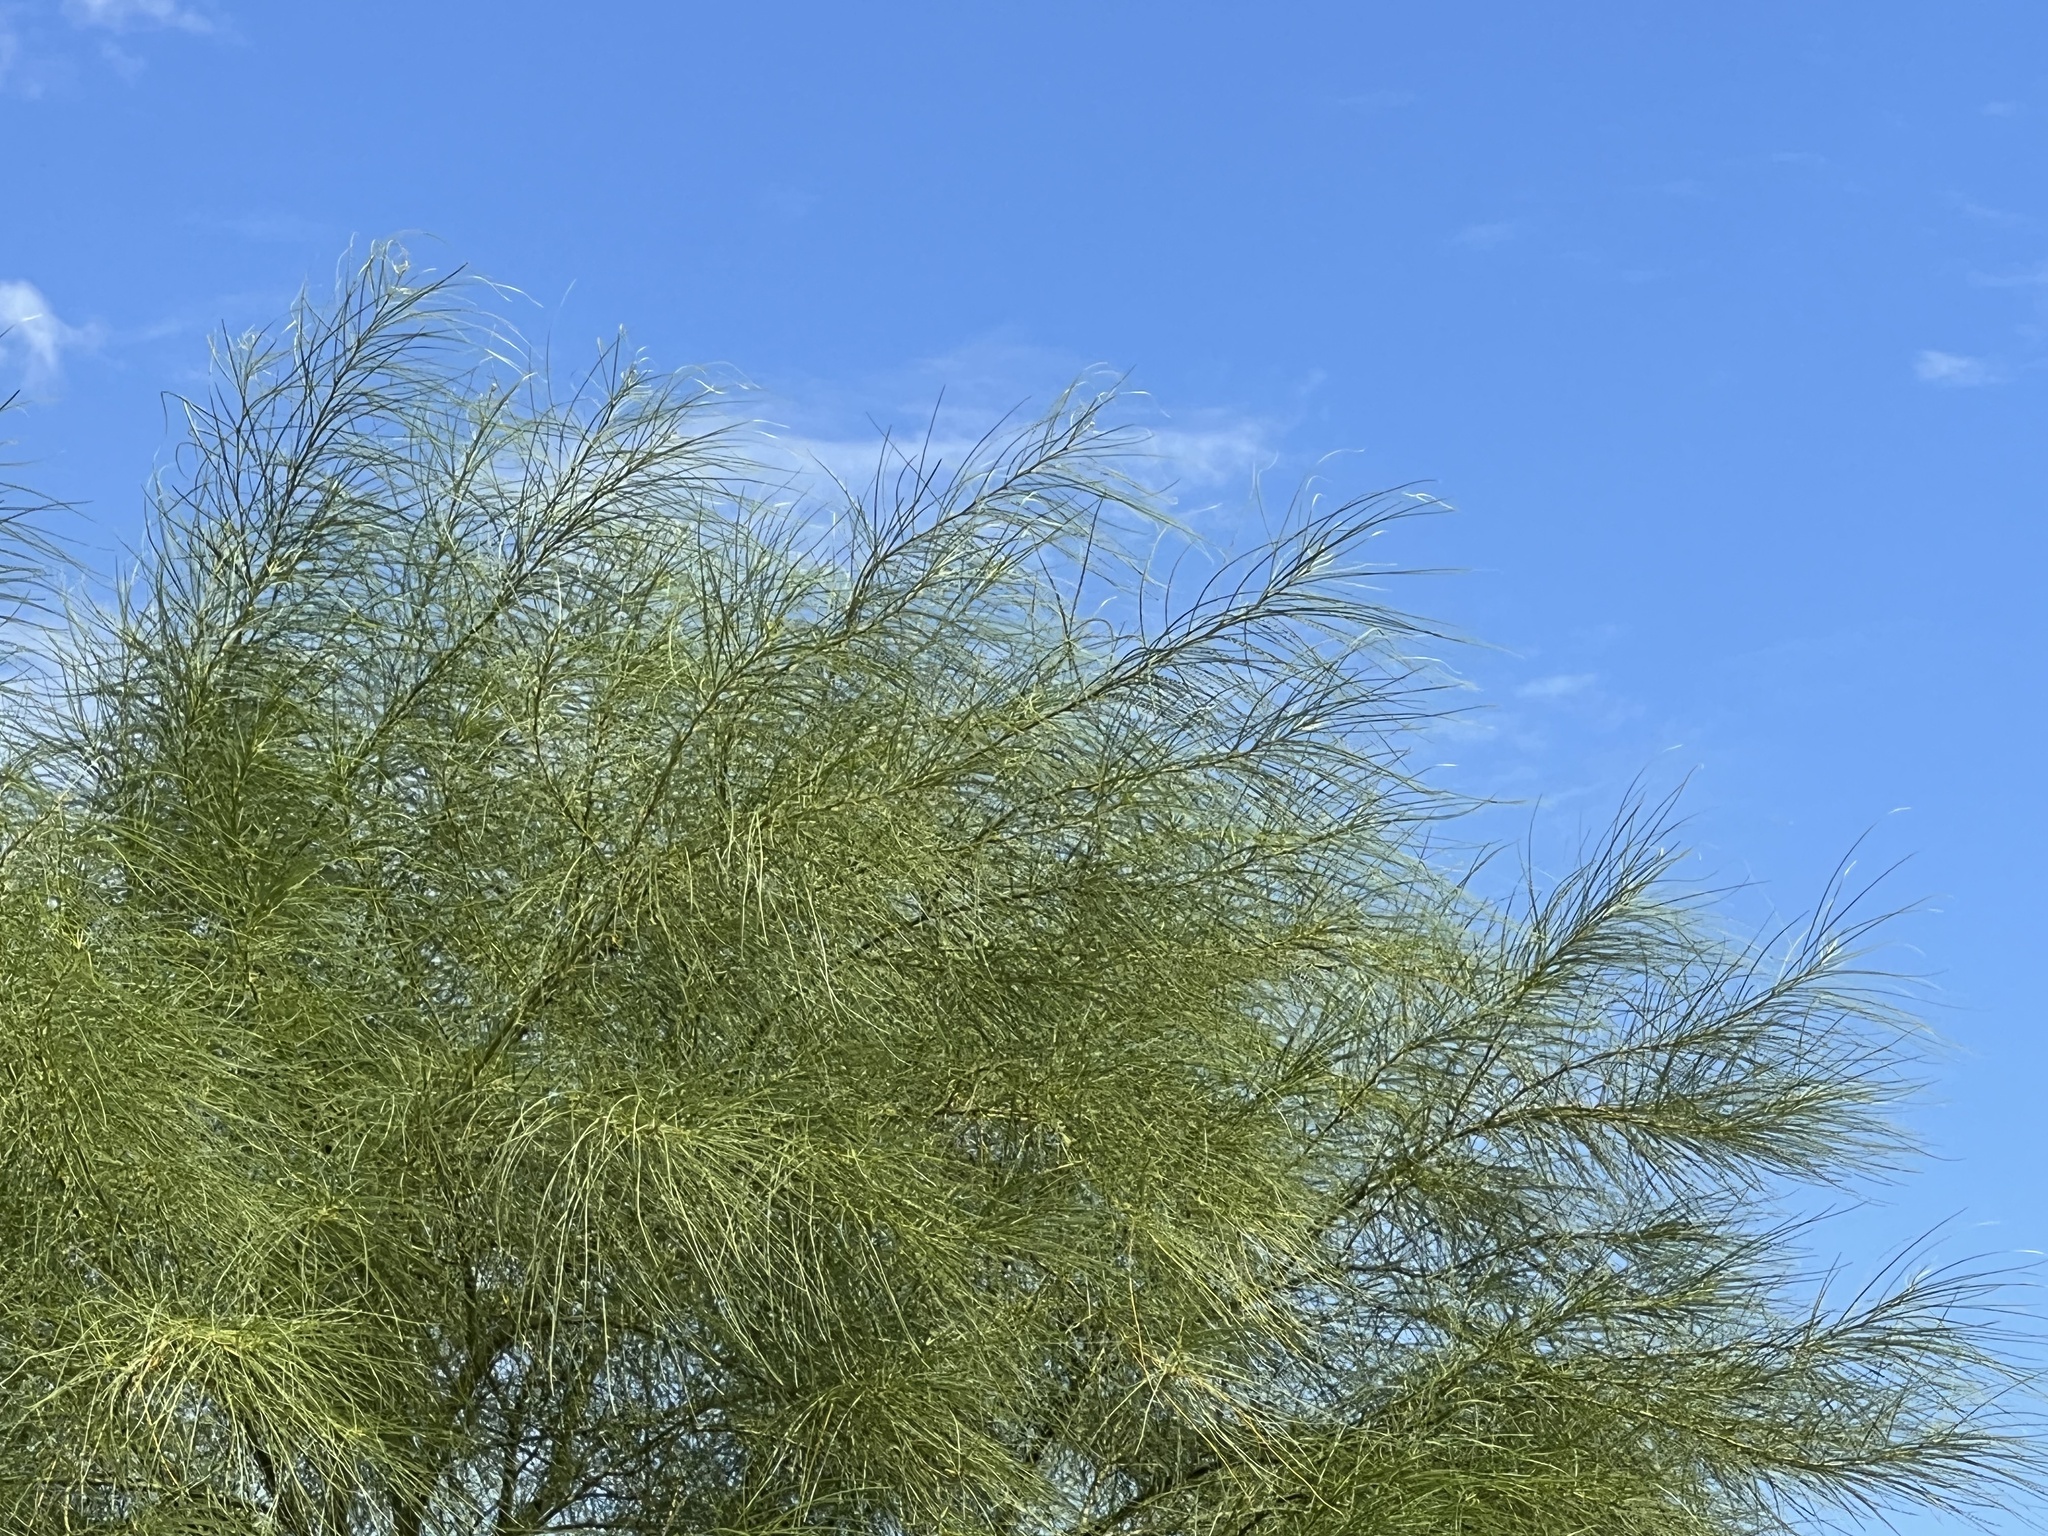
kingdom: Plantae
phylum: Tracheophyta
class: Magnoliopsida
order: Fabales
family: Fabaceae
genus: Parkinsonia
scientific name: Parkinsonia aculeata
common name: Jerusalem thorn
